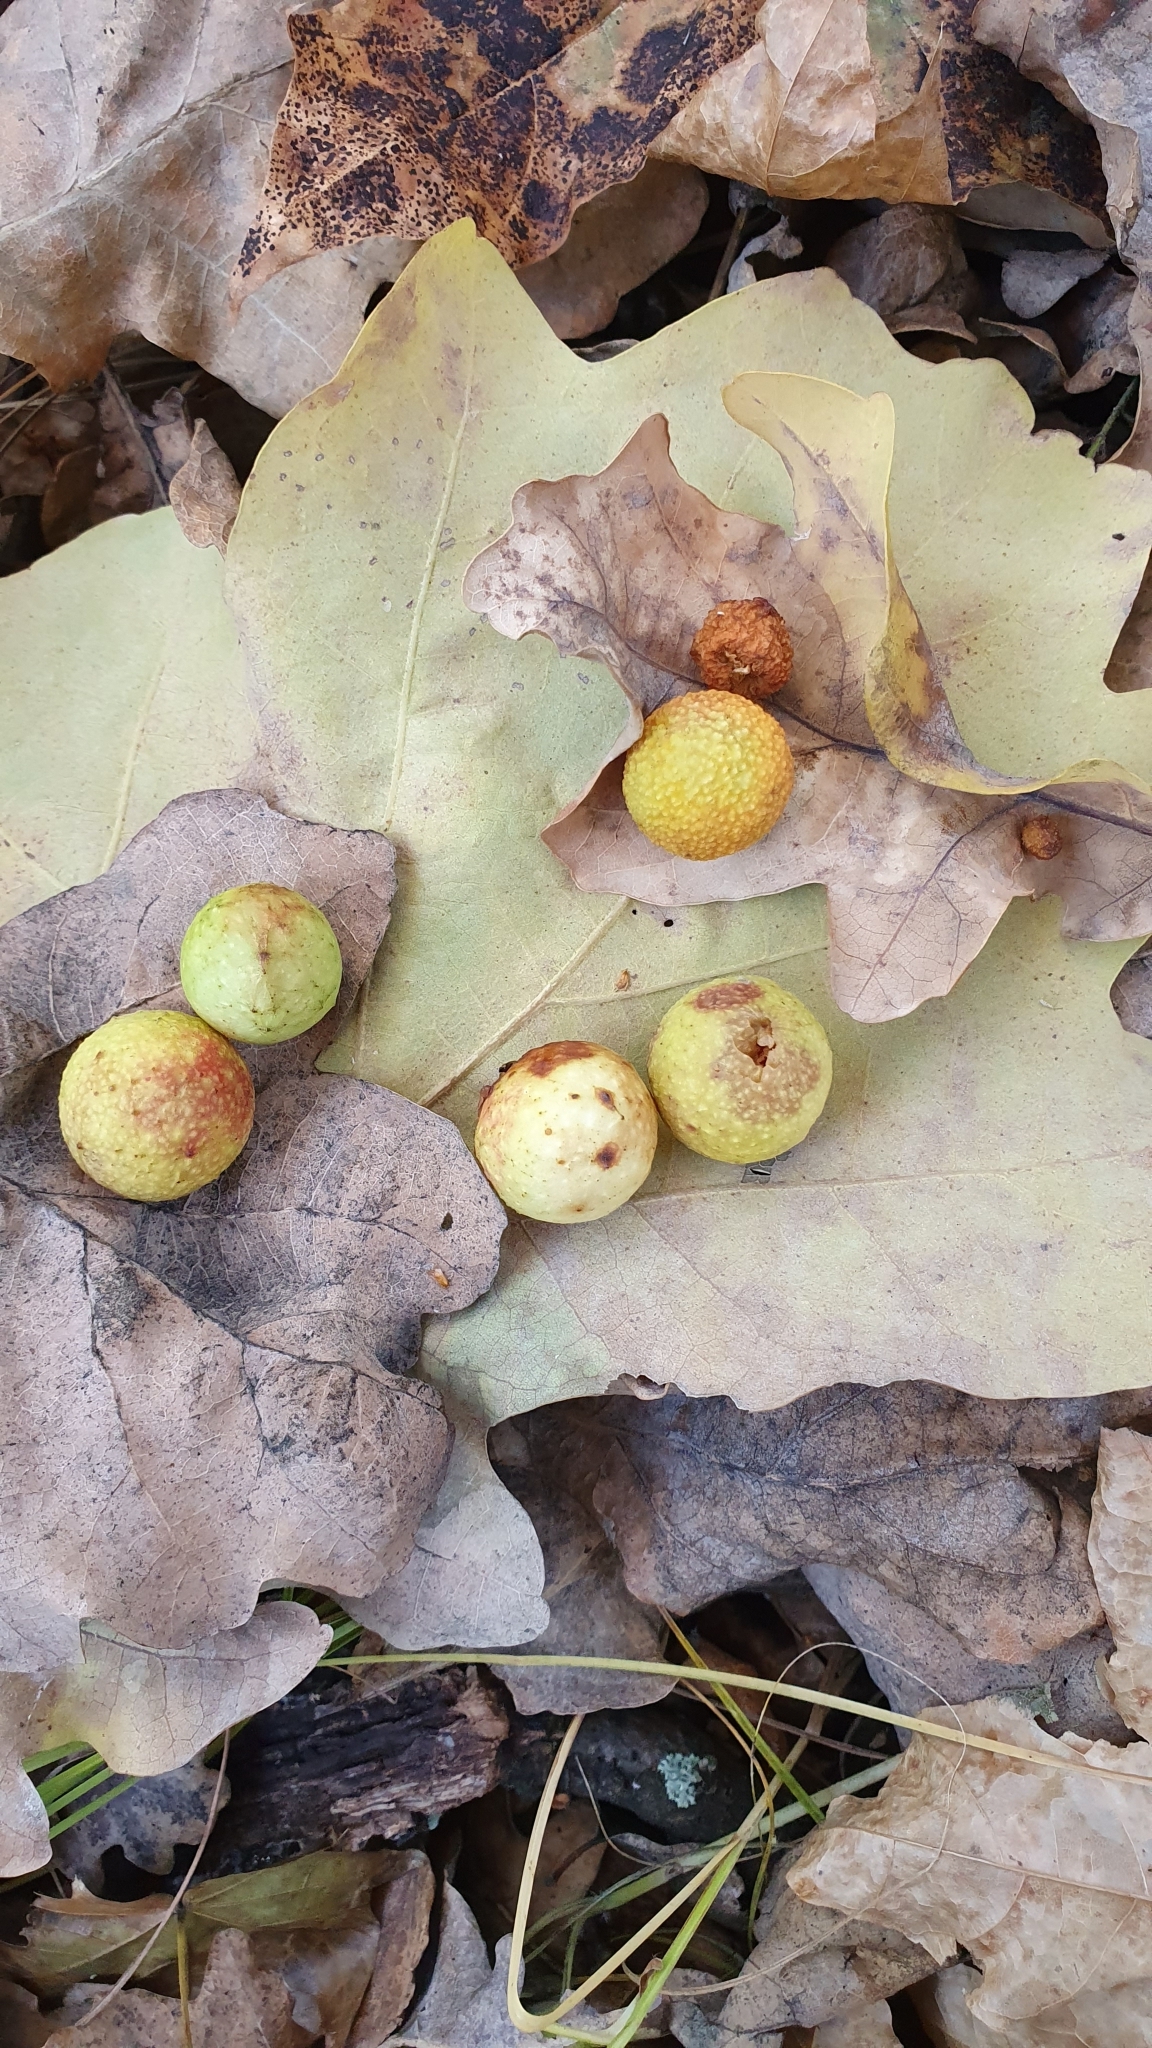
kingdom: Animalia
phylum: Arthropoda
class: Insecta
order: Hymenoptera
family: Cynipidae
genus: Cynips
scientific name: Cynips quercusfolii
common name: Cherry gall
